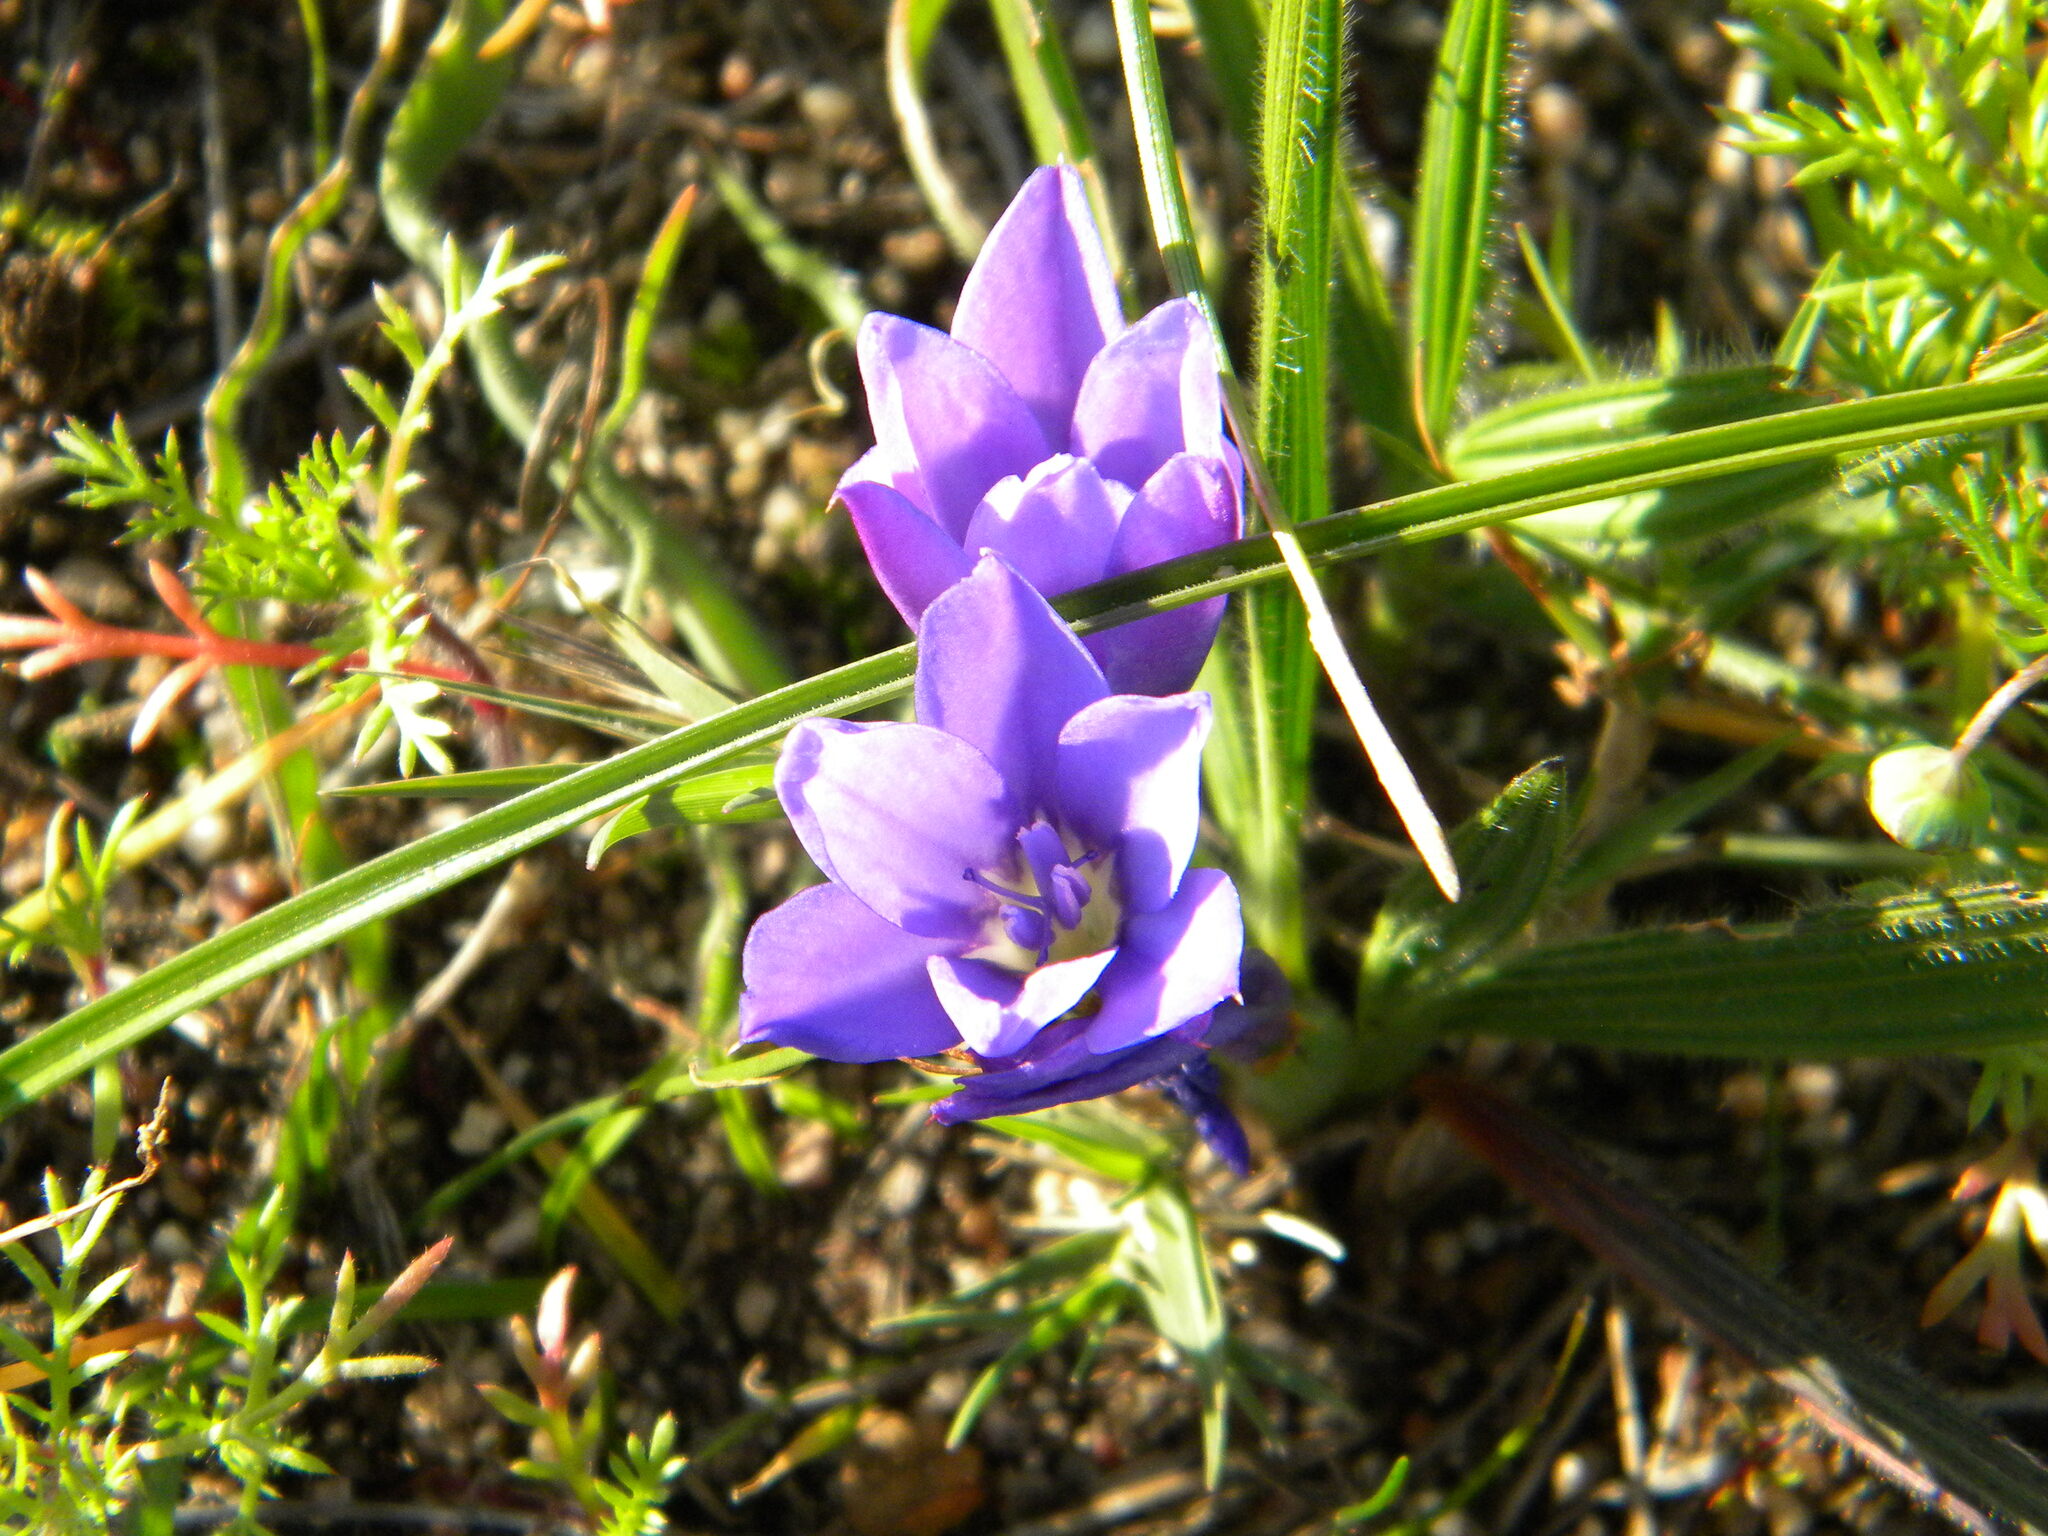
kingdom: Plantae
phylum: Tracheophyta
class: Liliopsida
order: Asparagales
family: Iridaceae
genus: Babiana
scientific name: Babiana villosula
